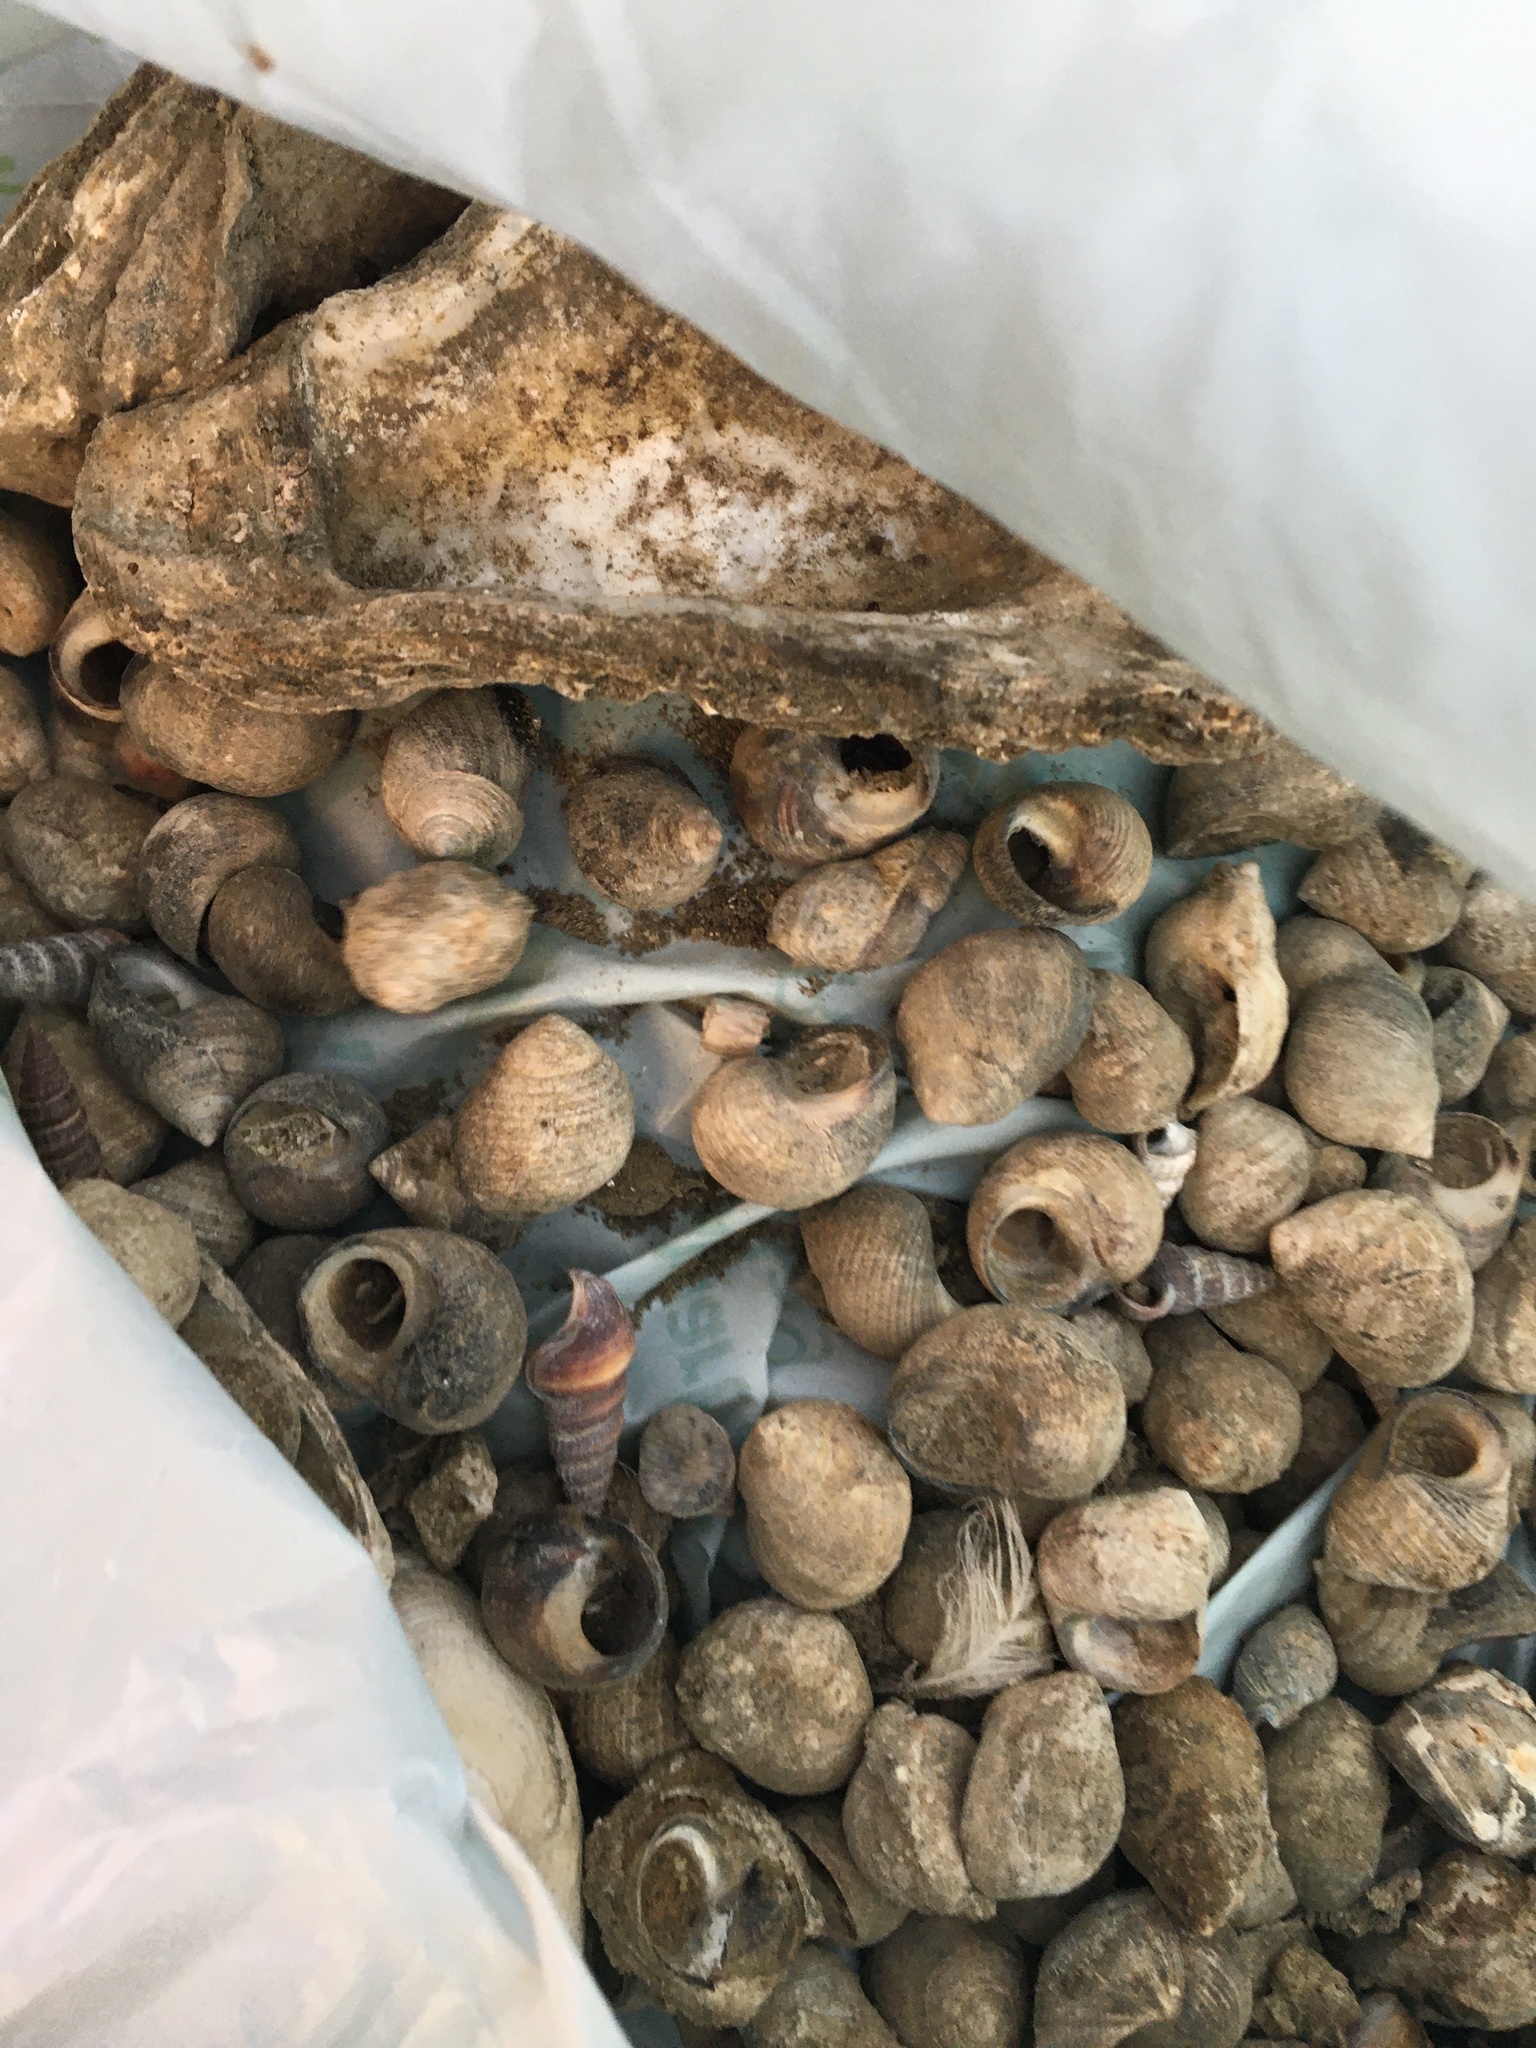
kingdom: Animalia
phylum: Mollusca
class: Gastropoda
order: Littorinimorpha
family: Littorinidae
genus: Littorina
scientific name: Littorina littorea
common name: Common periwinkle
